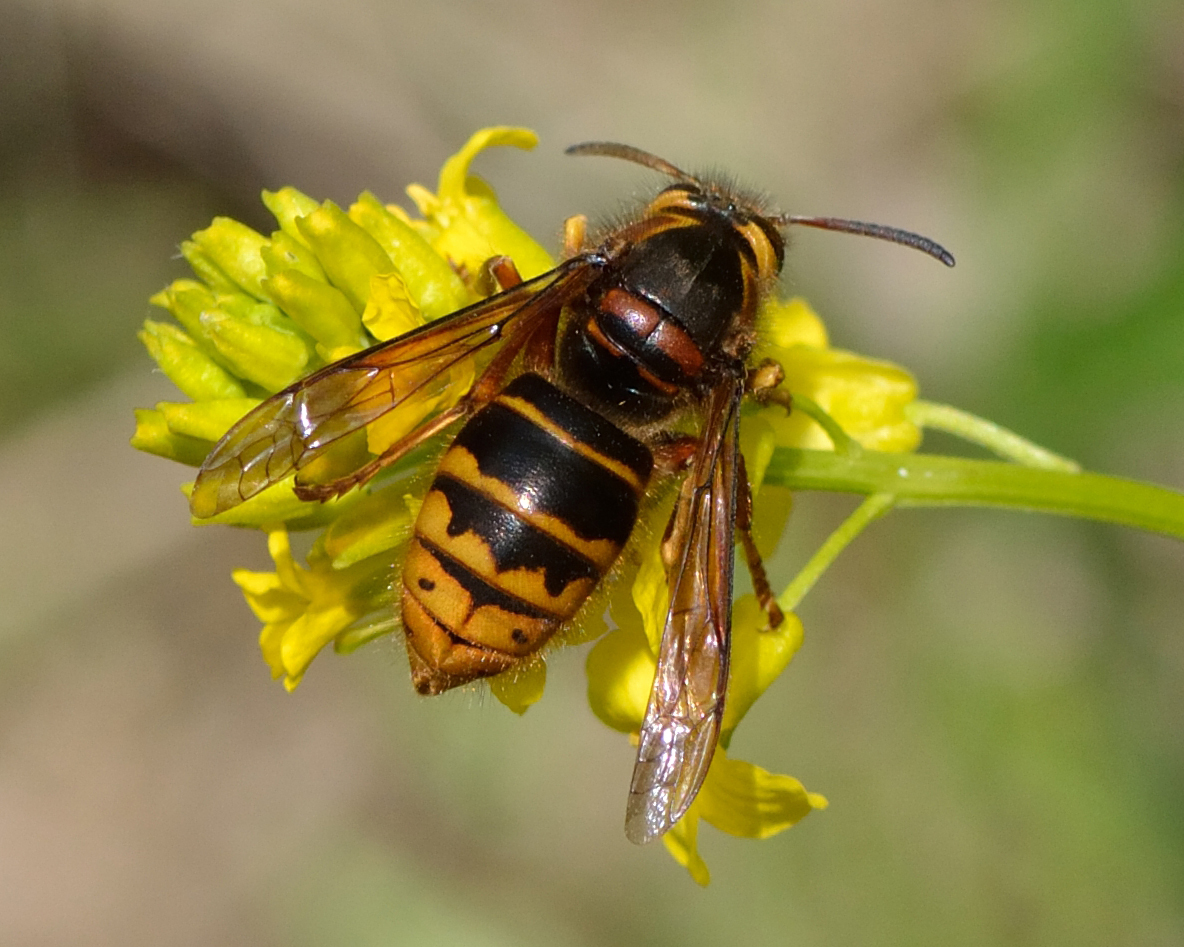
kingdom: Animalia
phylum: Arthropoda
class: Insecta
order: Hymenoptera
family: Vespidae
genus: Dolichovespula
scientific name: Dolichovespula media
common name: Median wasp
